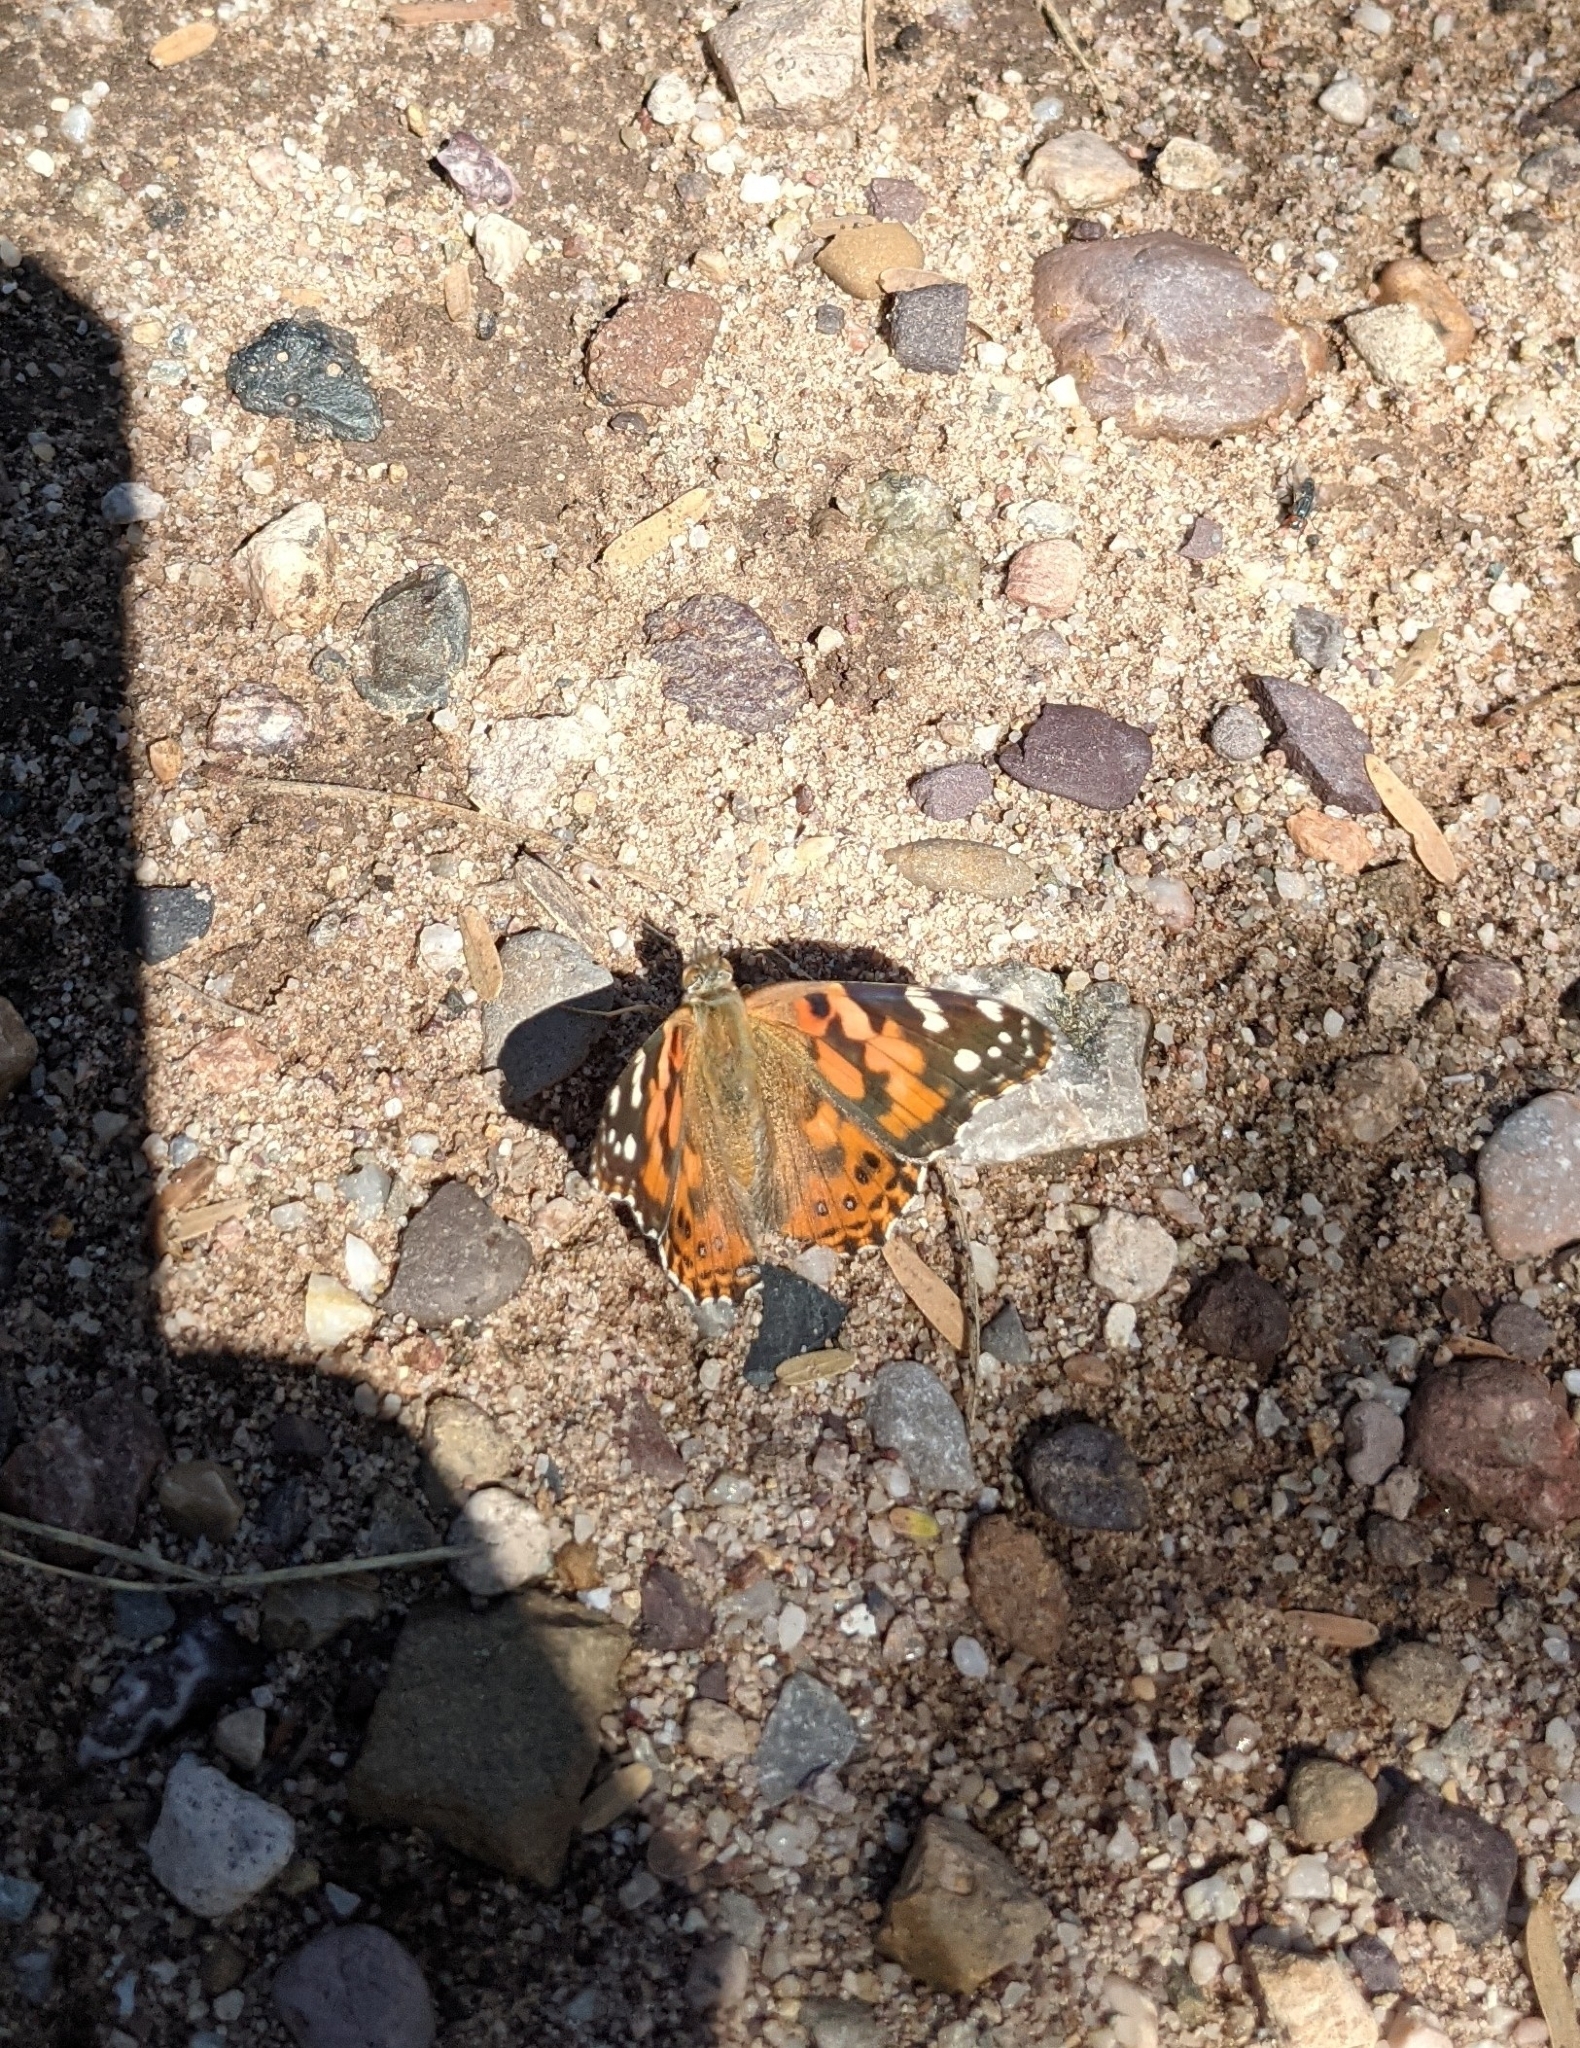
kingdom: Animalia
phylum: Arthropoda
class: Insecta
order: Lepidoptera
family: Nymphalidae
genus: Vanessa
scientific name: Vanessa cardui
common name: Painted lady
